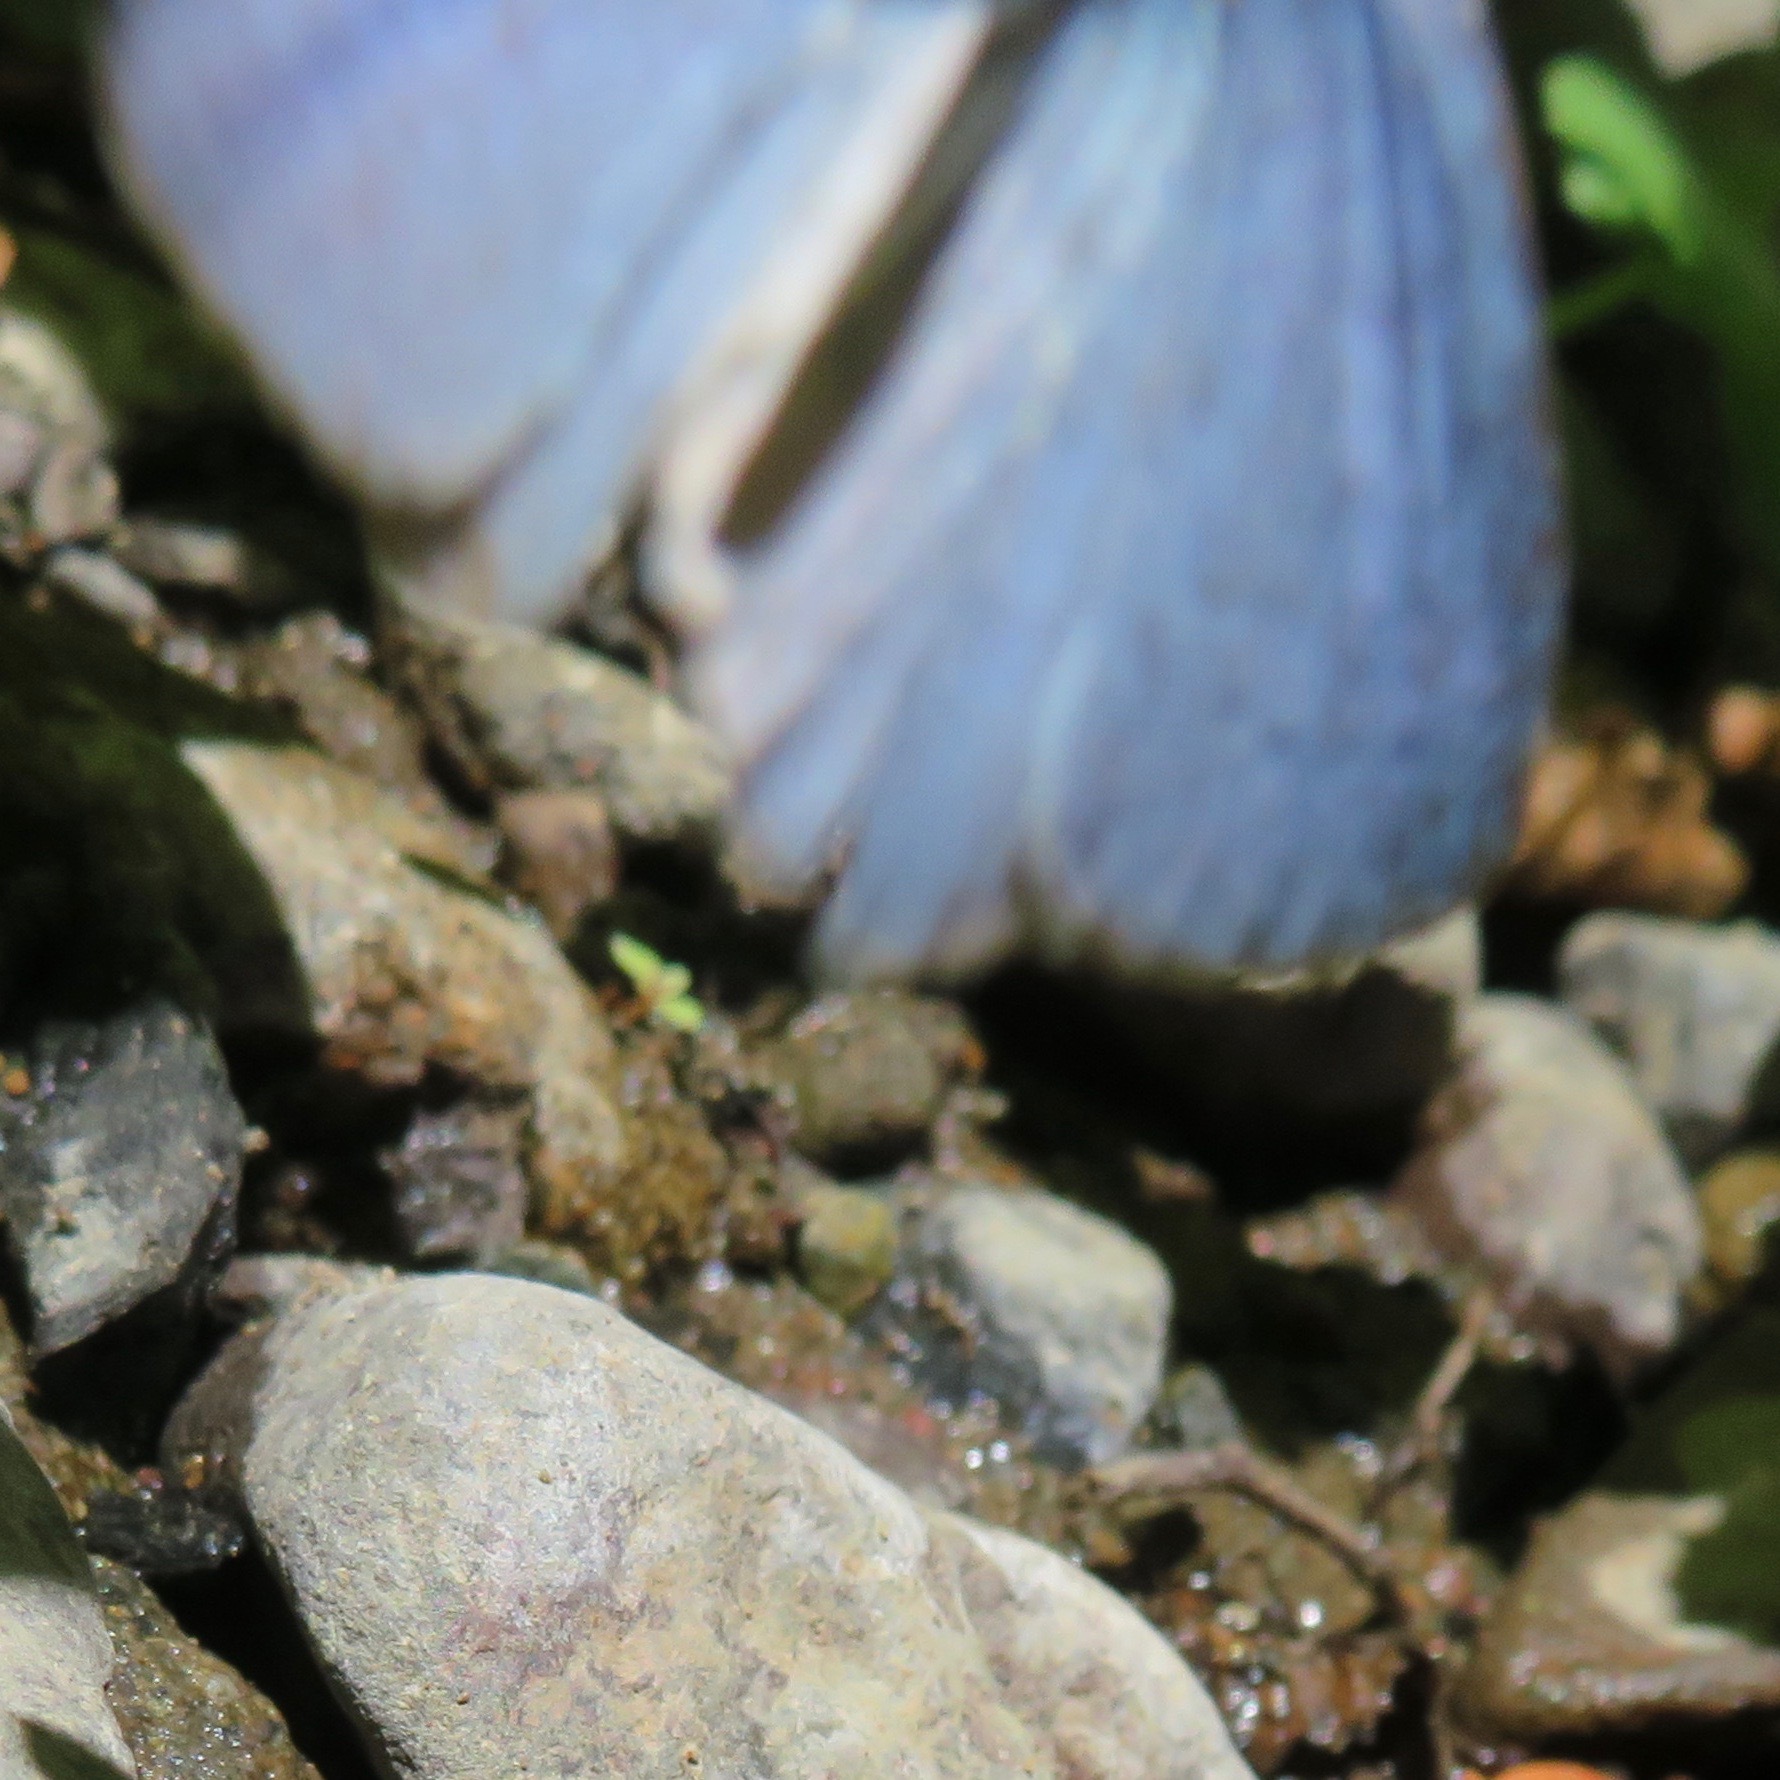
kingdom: Animalia
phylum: Arthropoda
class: Insecta
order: Lepidoptera
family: Lycaenidae
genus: Celastrina
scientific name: Celastrina ladon
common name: Spring azure
